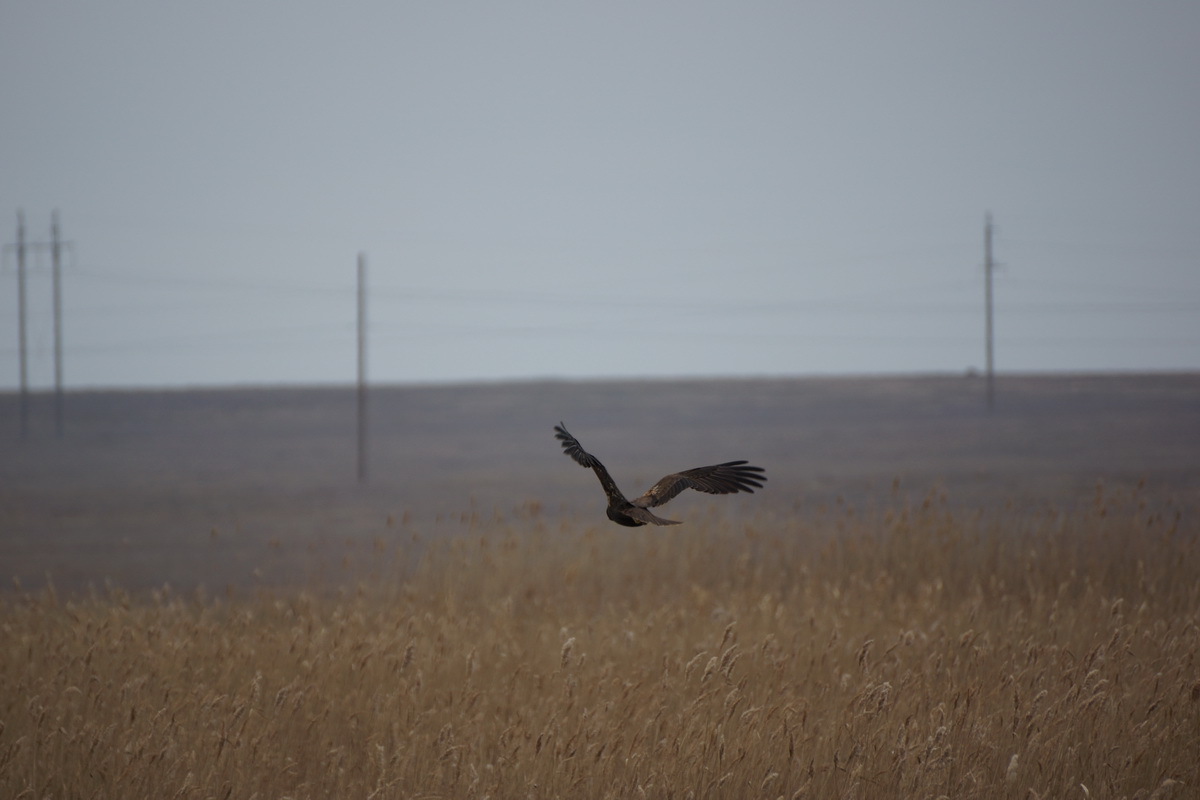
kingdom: Animalia
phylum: Chordata
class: Aves
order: Accipitriformes
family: Accipitridae
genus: Circus
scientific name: Circus aeruginosus
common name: Western marsh harrier
